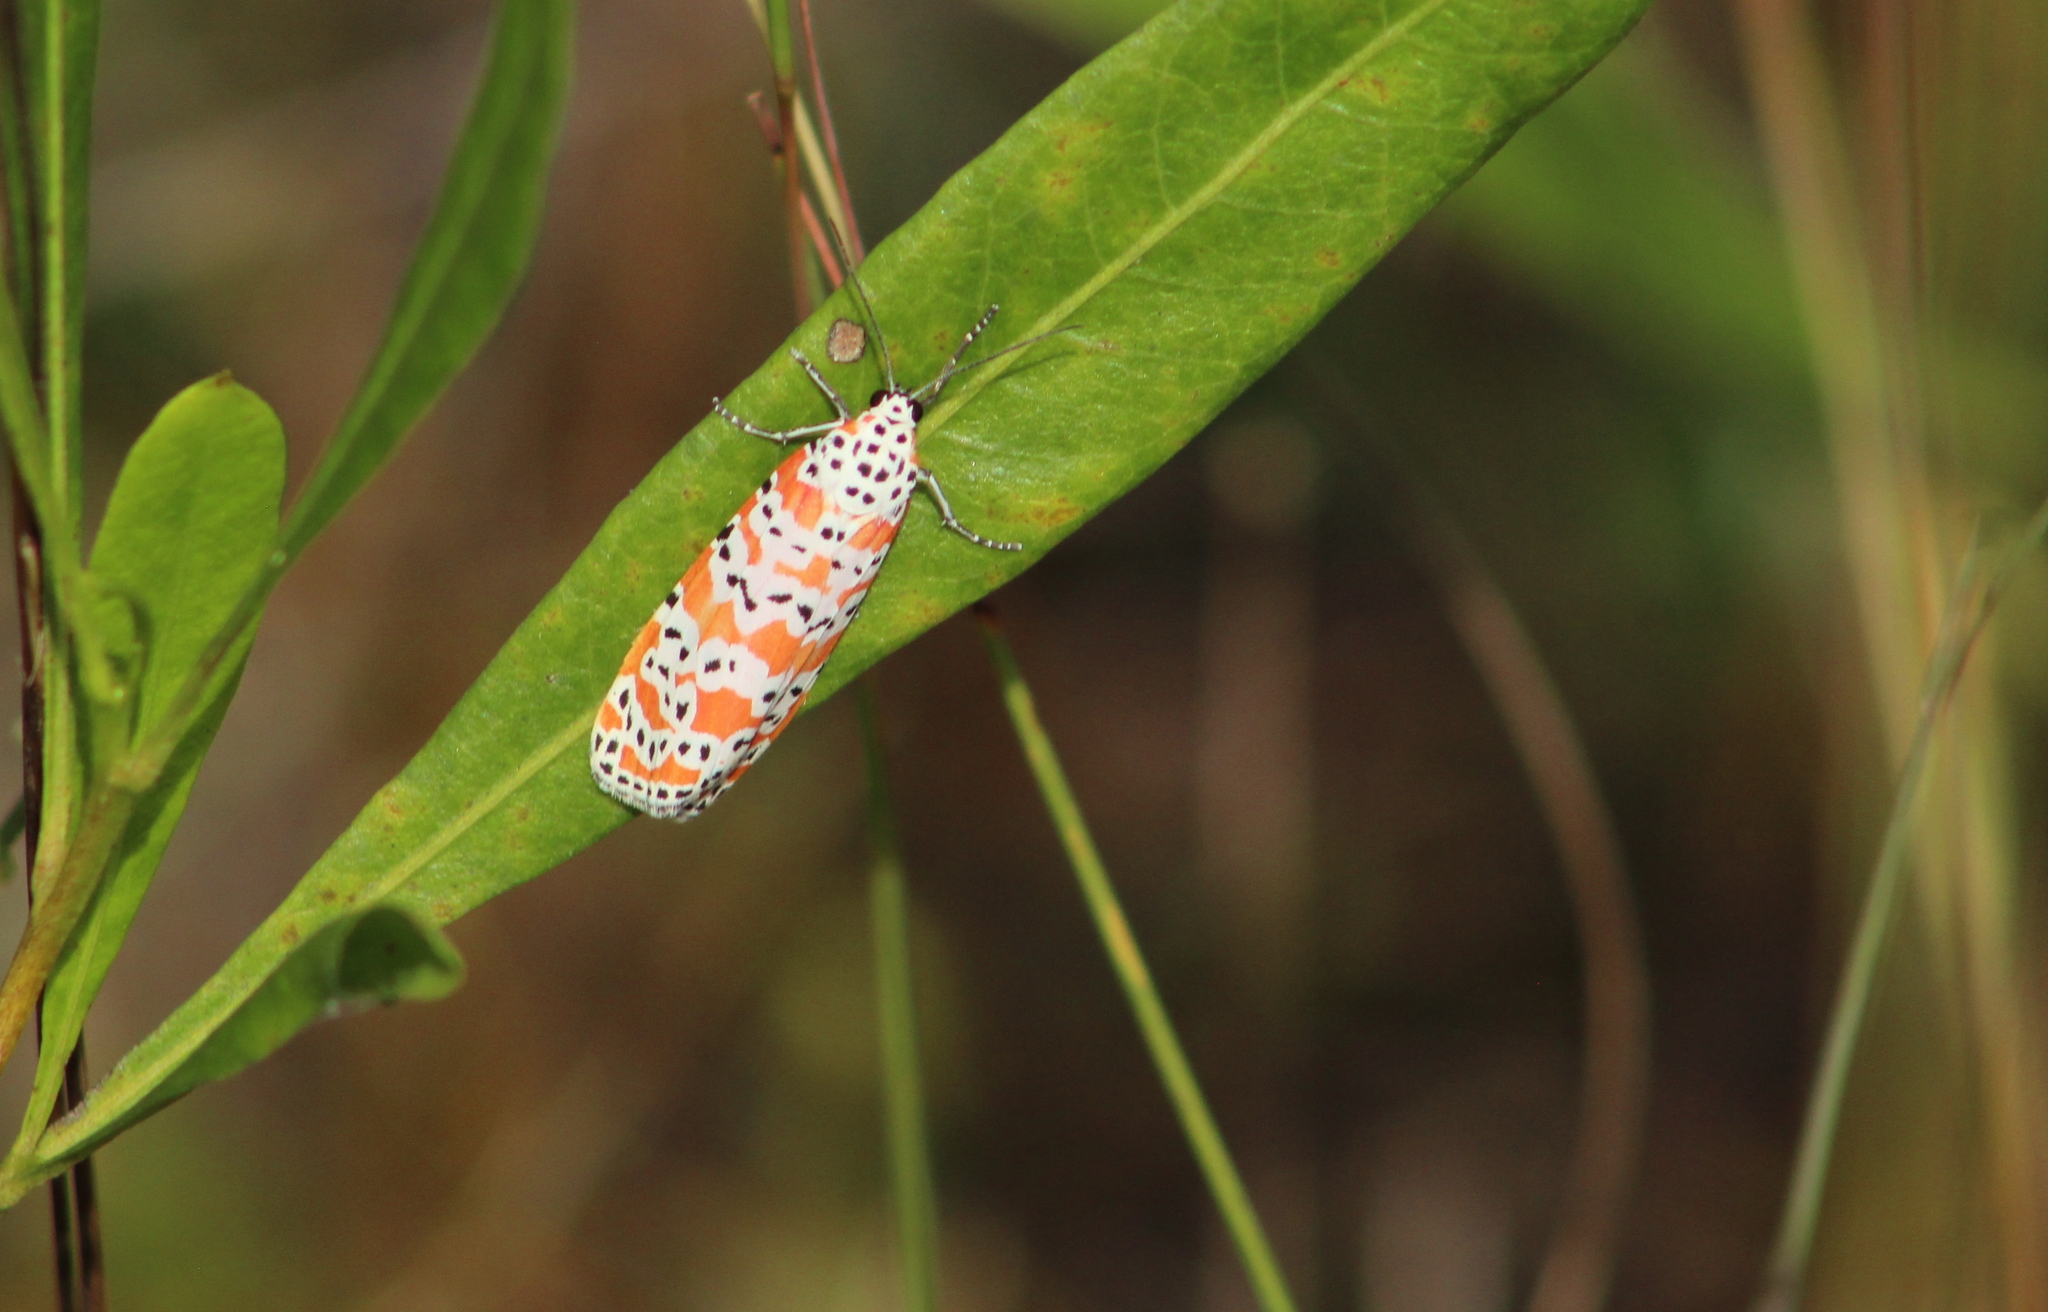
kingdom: Animalia
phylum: Arthropoda
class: Insecta
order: Lepidoptera
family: Erebidae
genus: Utetheisa
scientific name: Utetheisa ornatrix
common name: Beautiful utetheisa
